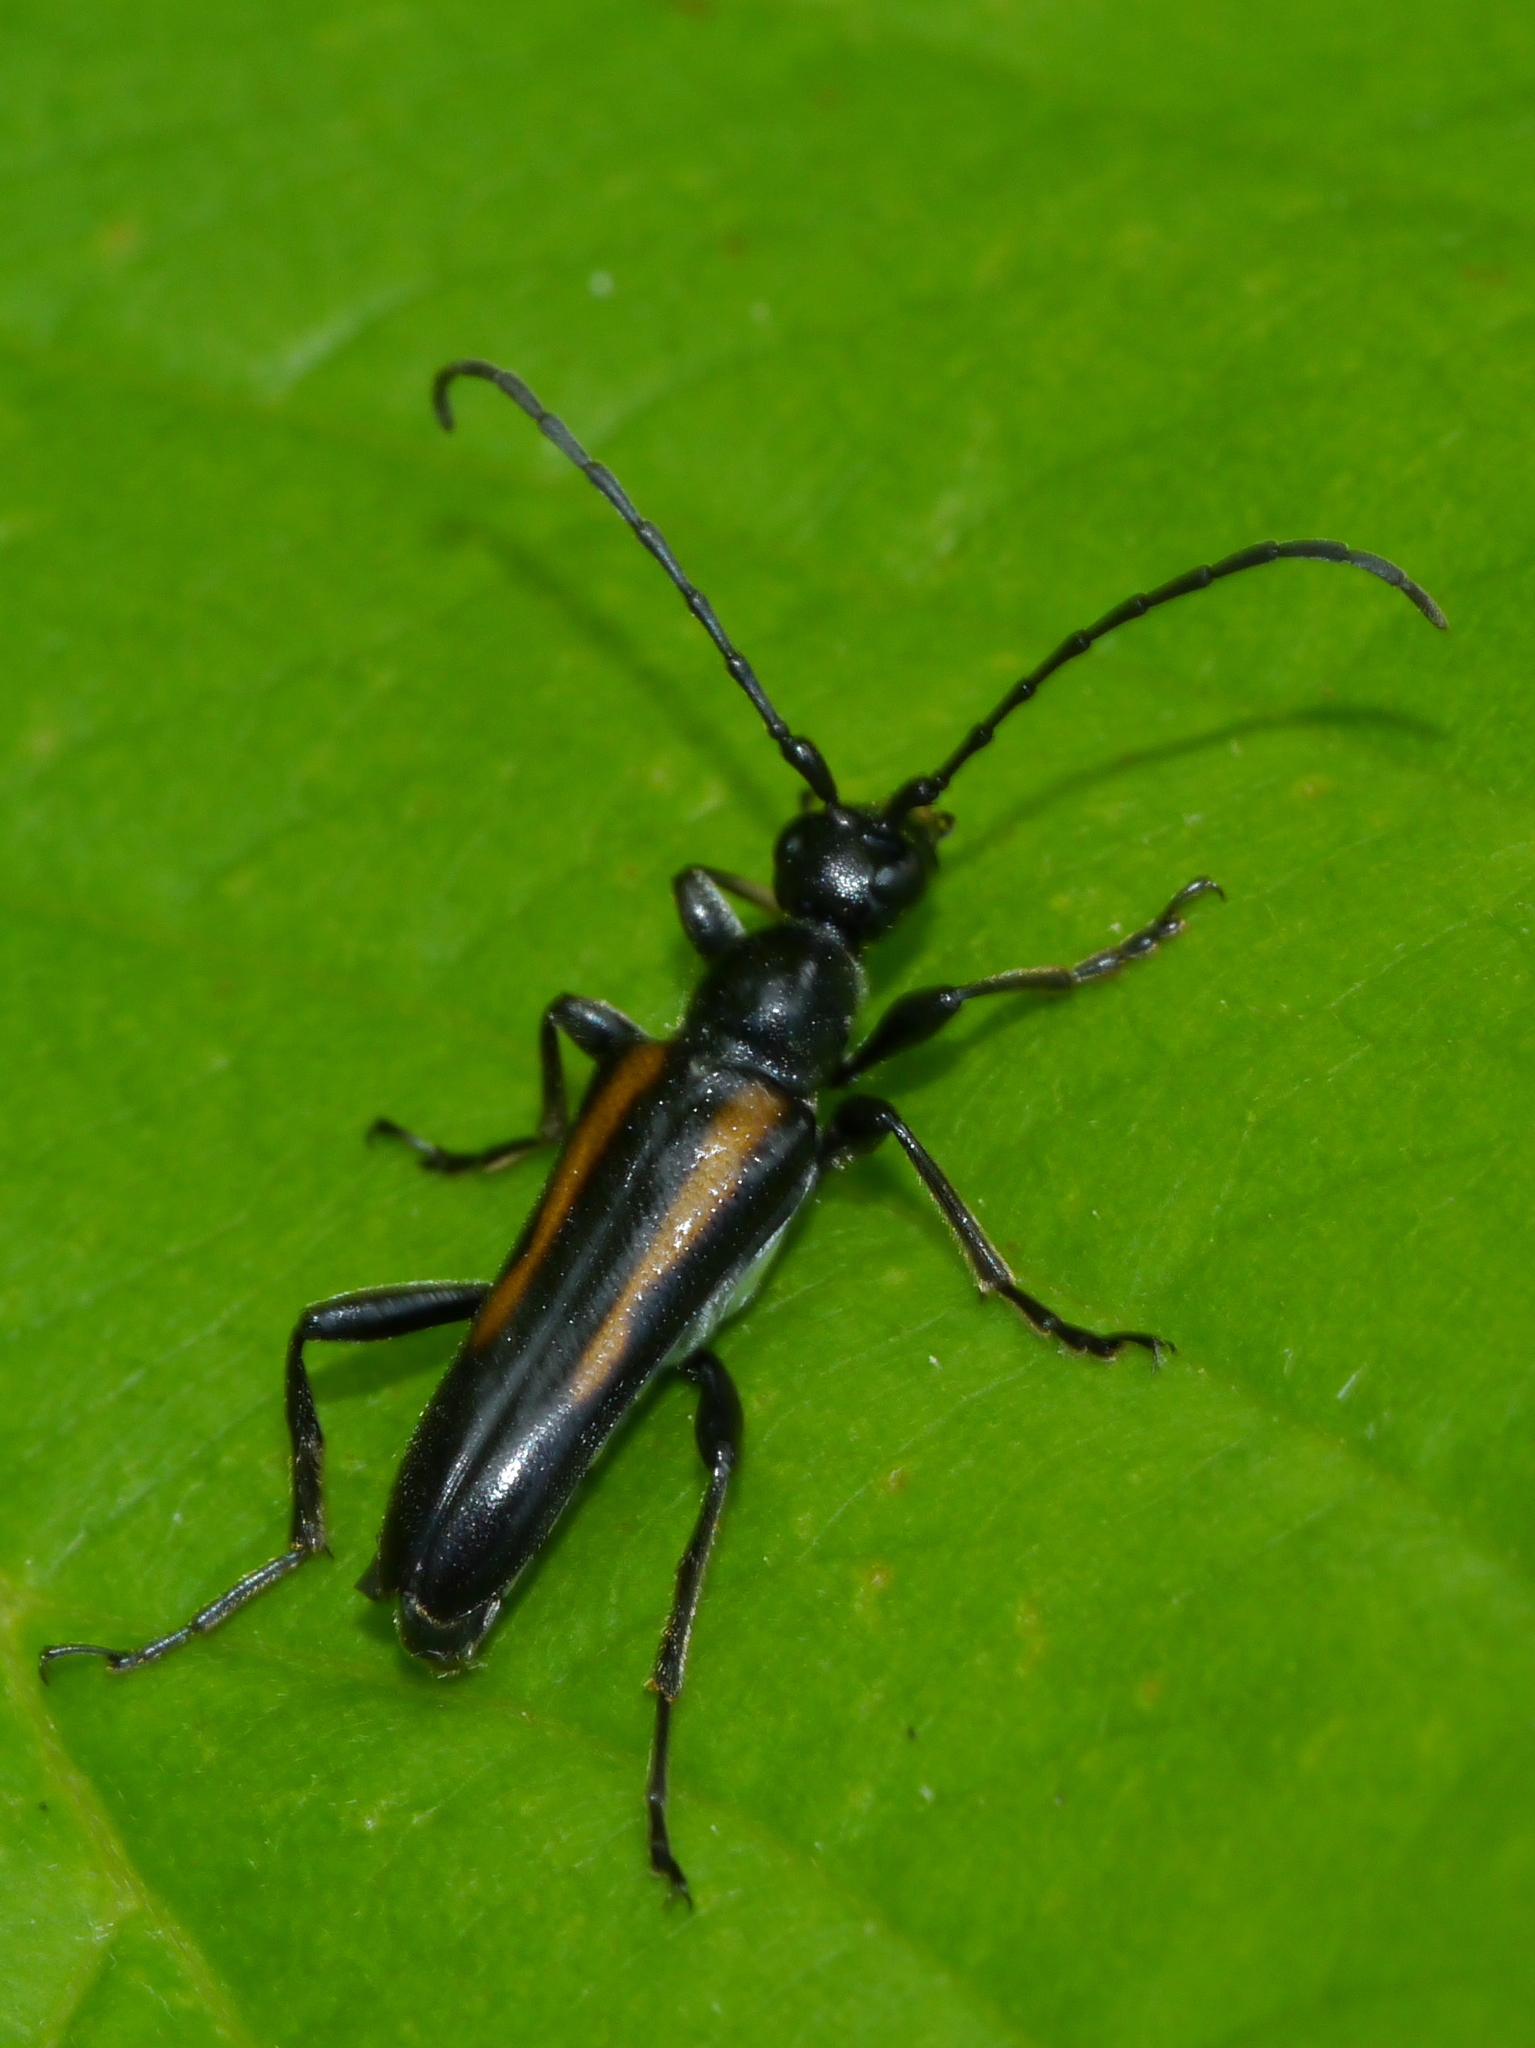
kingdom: Animalia
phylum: Arthropoda
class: Insecta
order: Coleoptera
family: Cerambycidae
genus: Strangalepta
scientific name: Strangalepta abbreviata
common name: Strangalepta flower longhorn beetle
